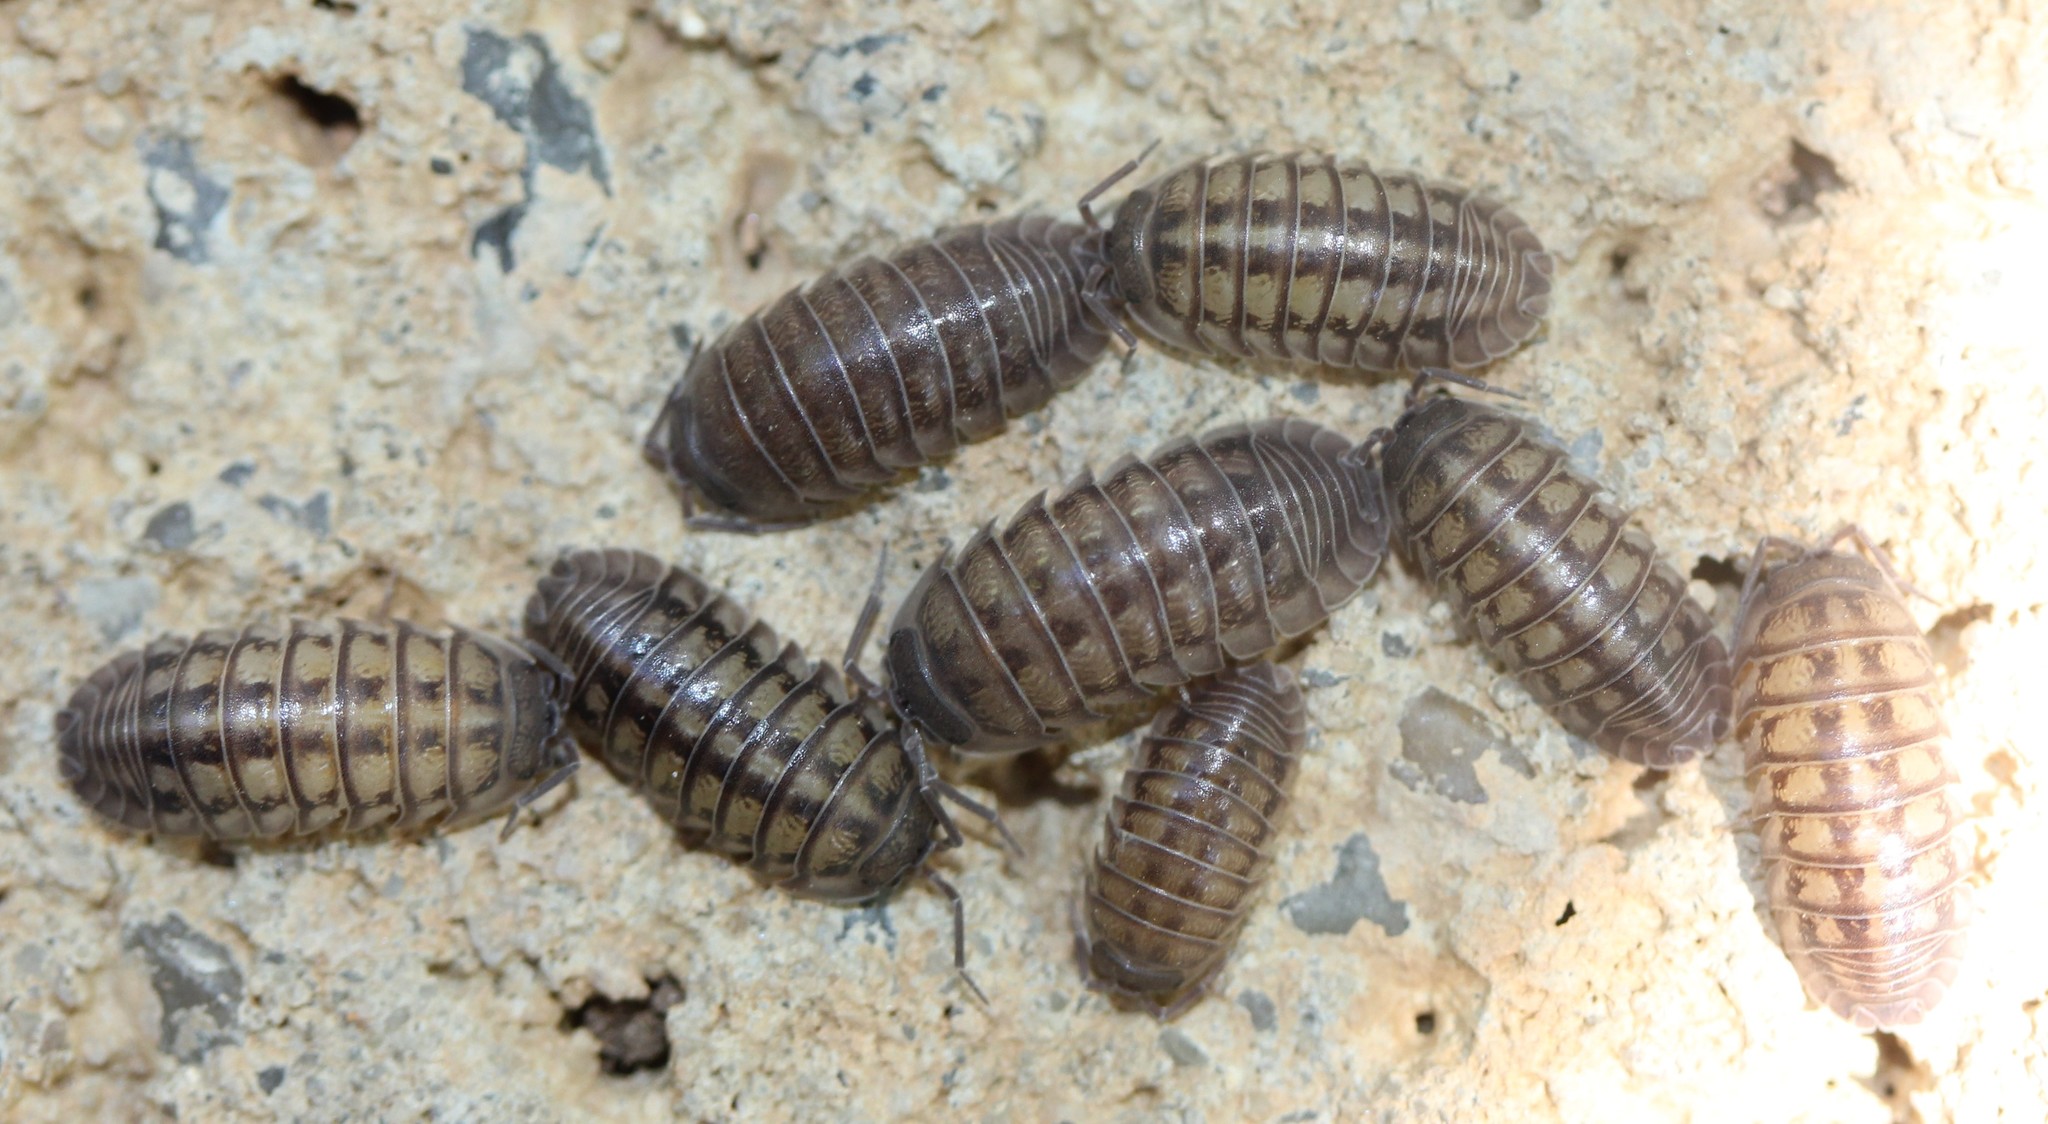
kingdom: Animalia
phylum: Arthropoda
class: Malacostraca
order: Isopoda
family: Armadillidiidae
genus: Armadillidium
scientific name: Armadillidium nasatum
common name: Isopod
